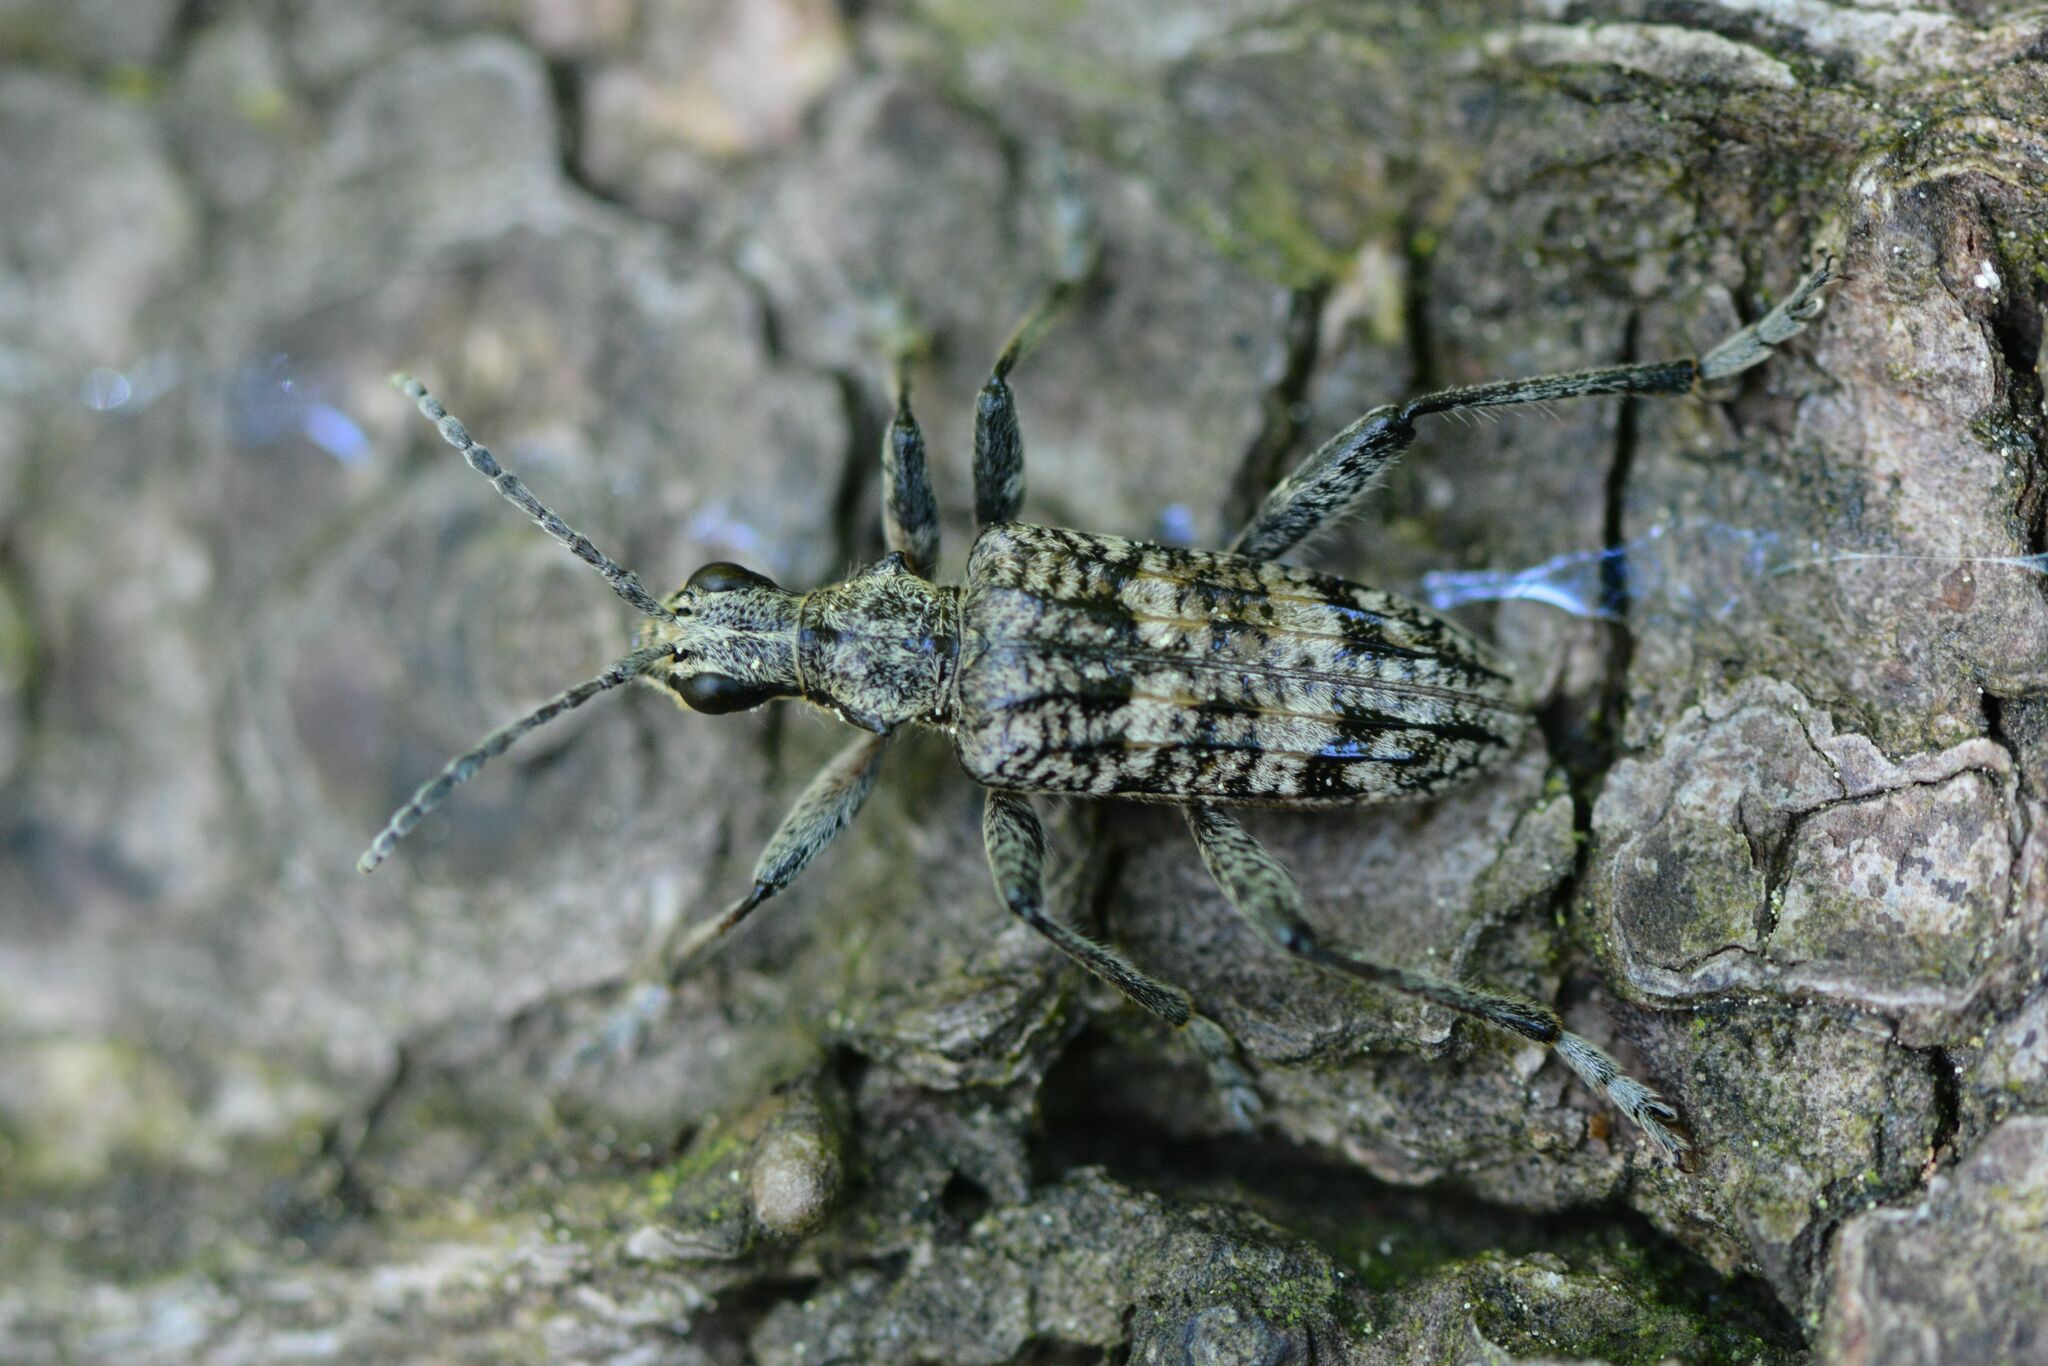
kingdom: Animalia
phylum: Arthropoda
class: Insecta
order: Coleoptera
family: Cerambycidae
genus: Rhagium
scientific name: Rhagium inquisitor
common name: Ribbed pine borer
